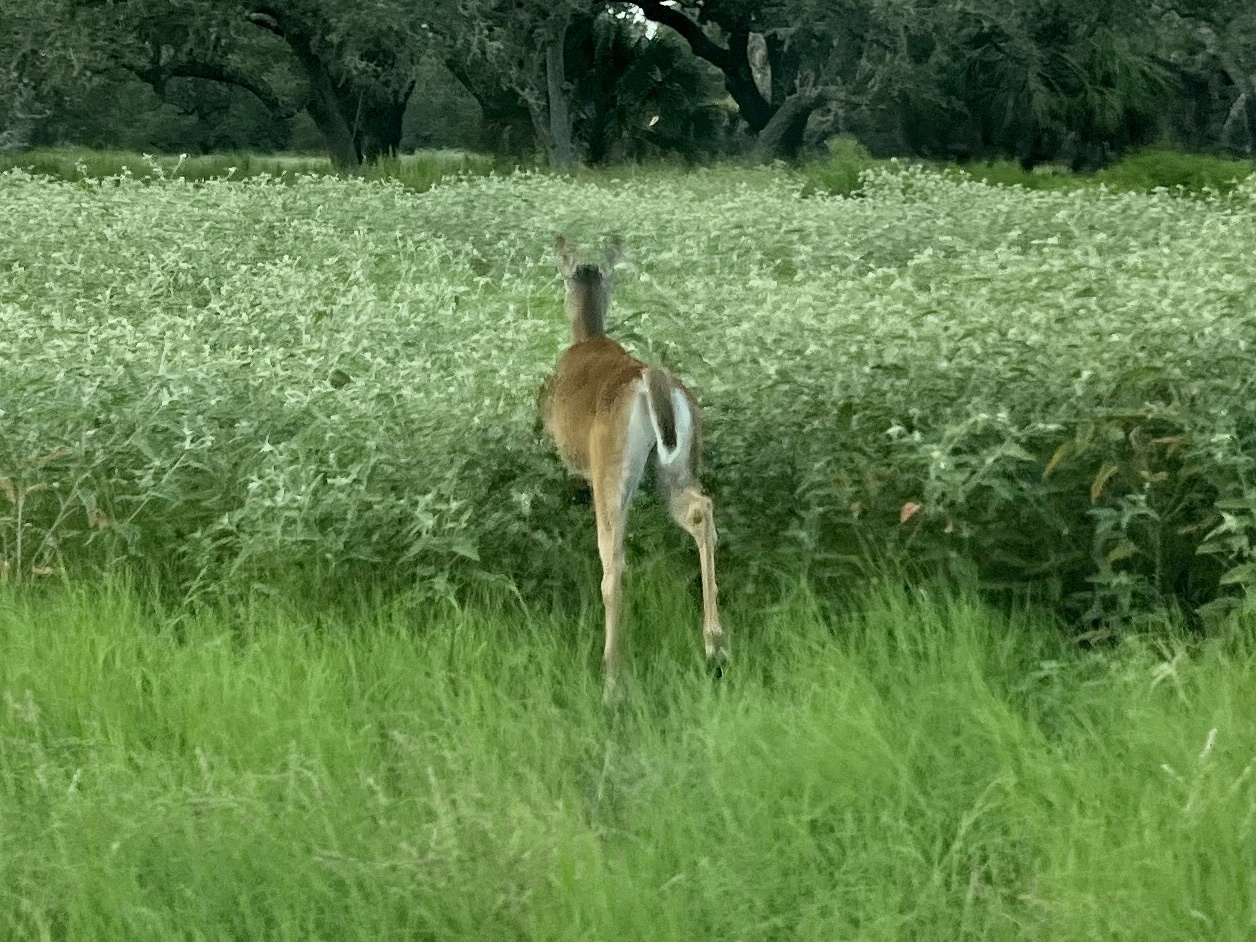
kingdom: Animalia
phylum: Chordata
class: Mammalia
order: Artiodactyla
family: Cervidae
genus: Odocoileus
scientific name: Odocoileus virginianus
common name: White-tailed deer
